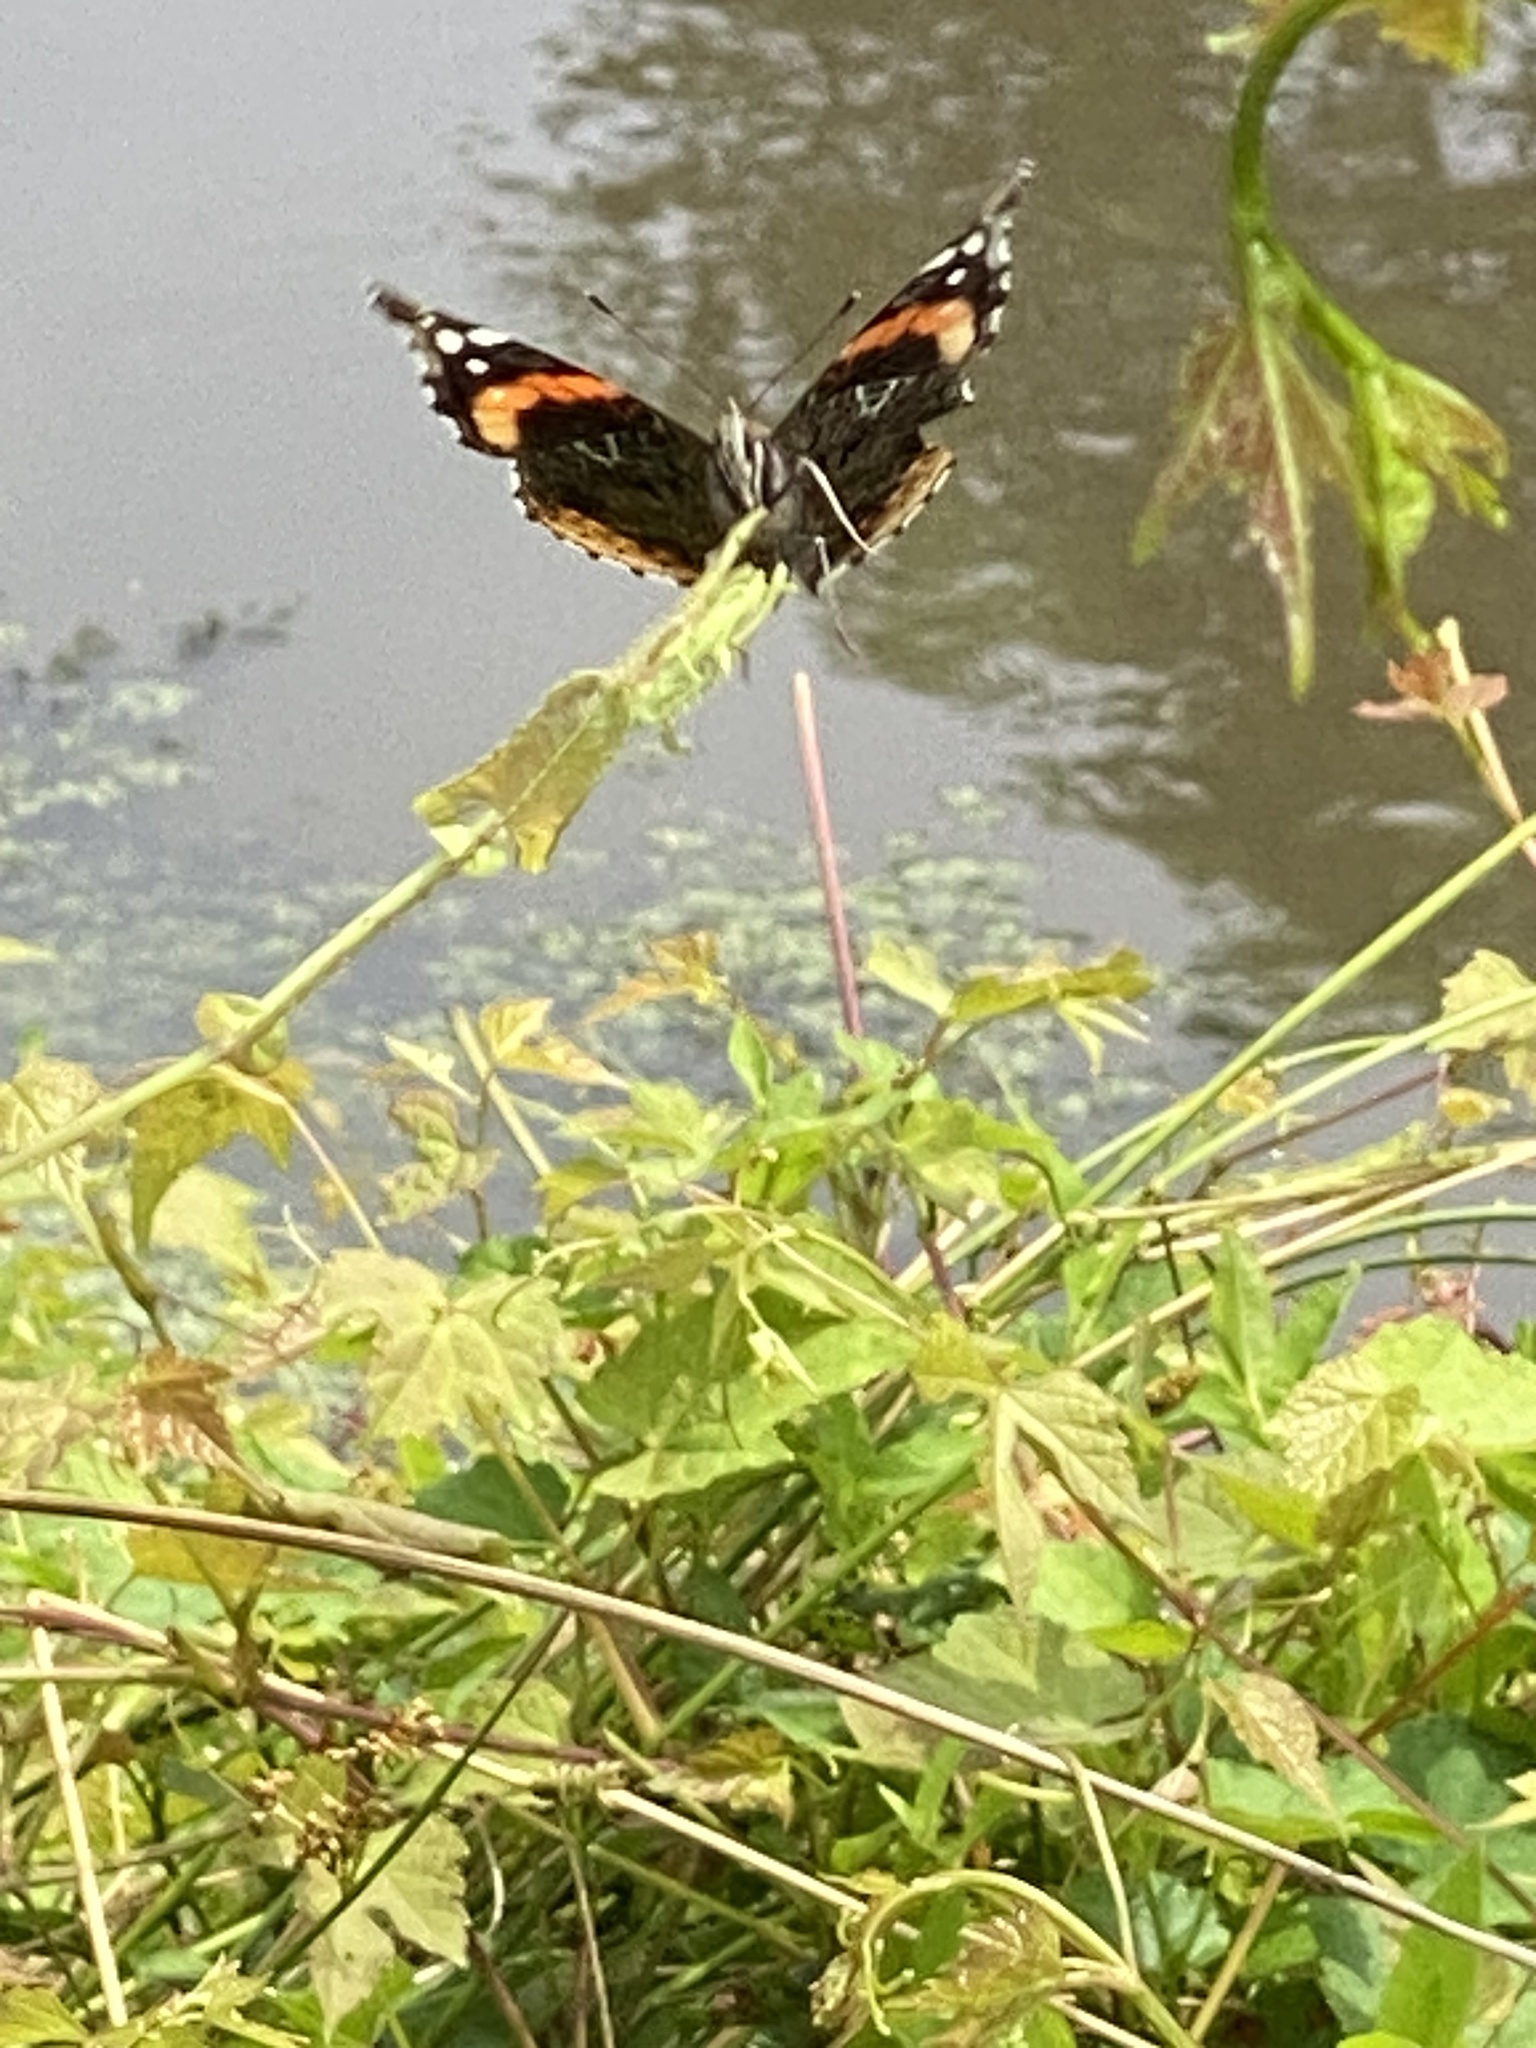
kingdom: Animalia
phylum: Arthropoda
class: Insecta
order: Lepidoptera
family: Nymphalidae
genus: Vanessa
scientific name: Vanessa atalanta
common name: Red admiral
